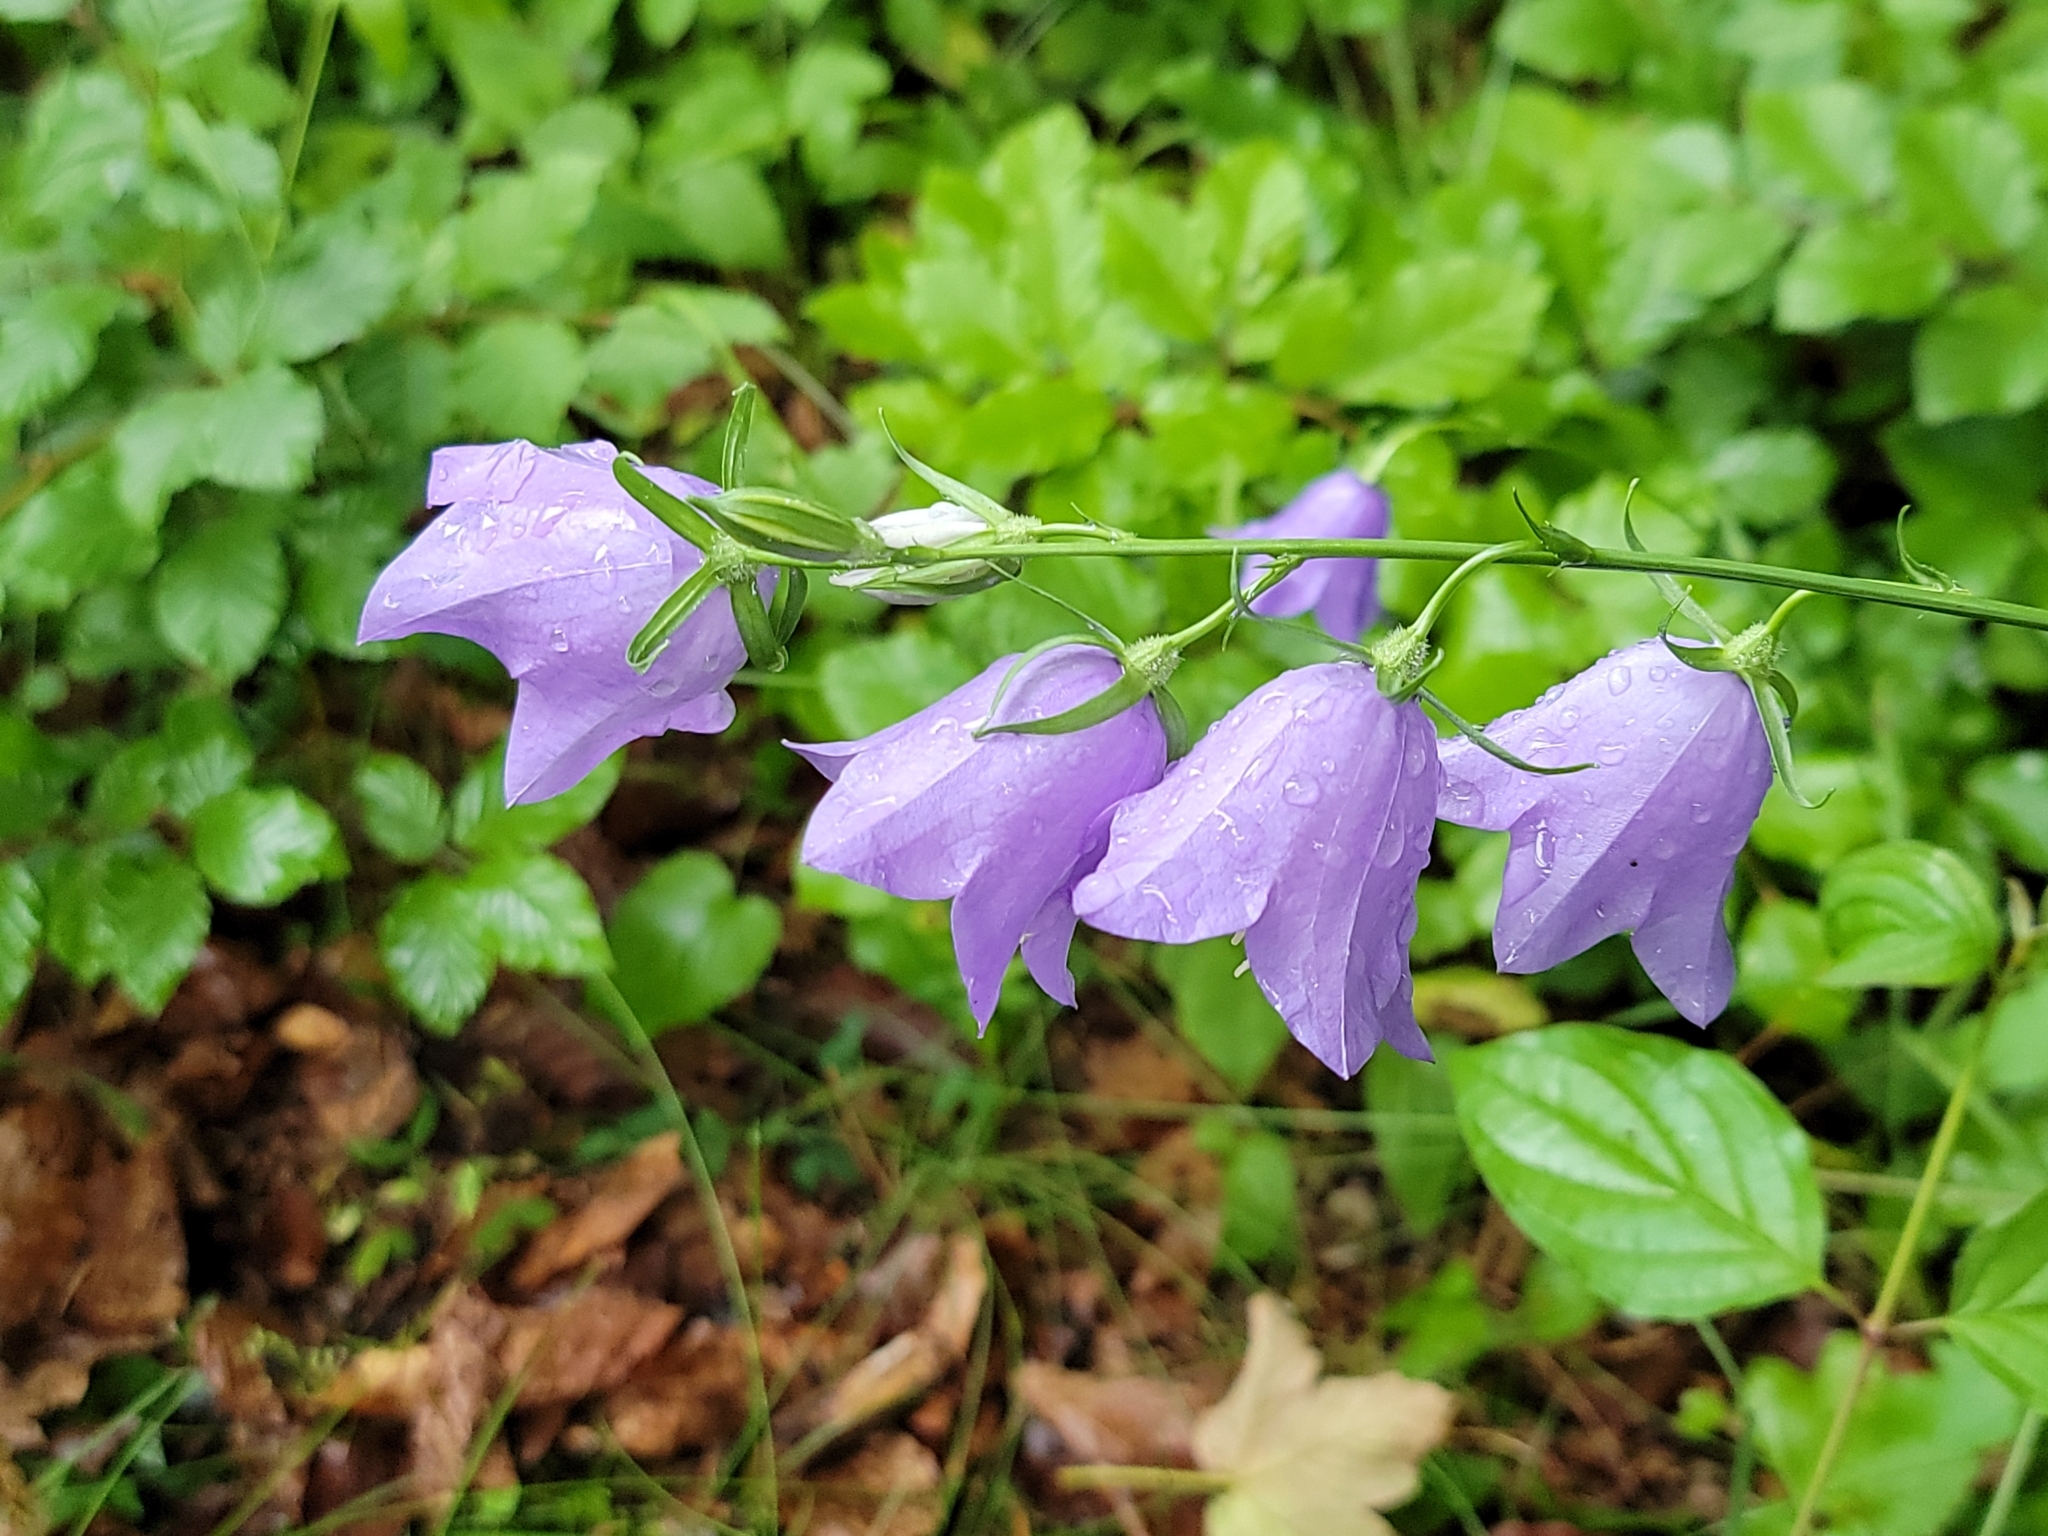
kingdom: Plantae
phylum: Tracheophyta
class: Magnoliopsida
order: Asterales
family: Campanulaceae
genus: Campanula
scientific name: Campanula persicifolia
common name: Peach-leaved bellflower
